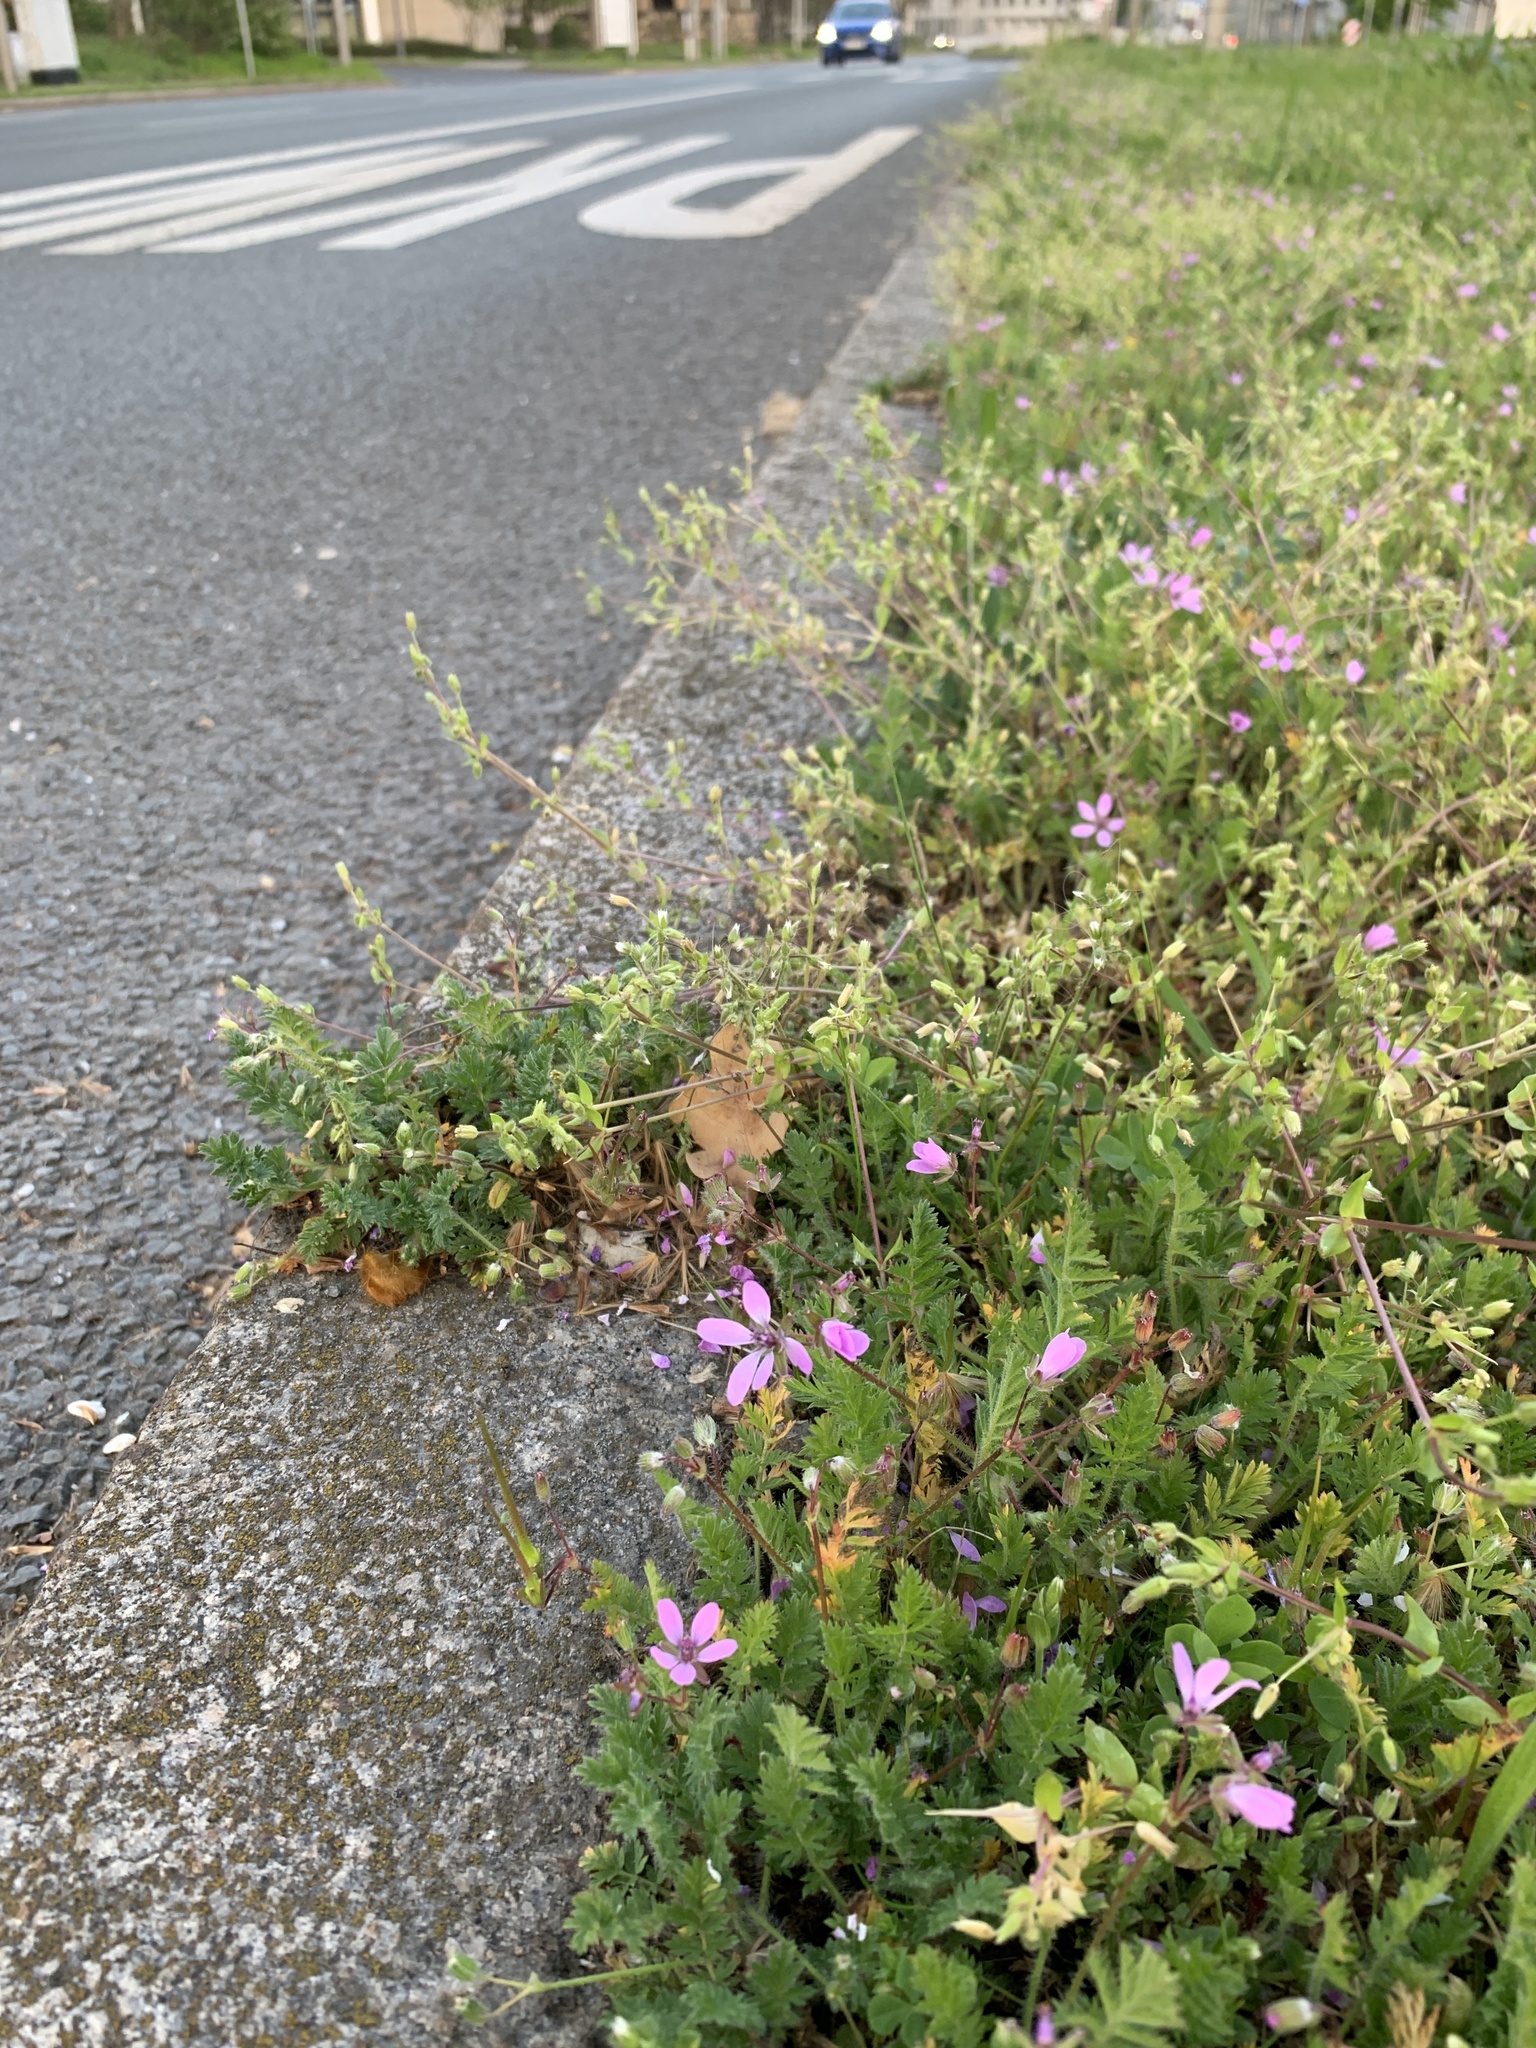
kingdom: Plantae
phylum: Tracheophyta
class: Magnoliopsida
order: Geraniales
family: Geraniaceae
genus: Erodium
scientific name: Erodium cicutarium
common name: Common stork's-bill
